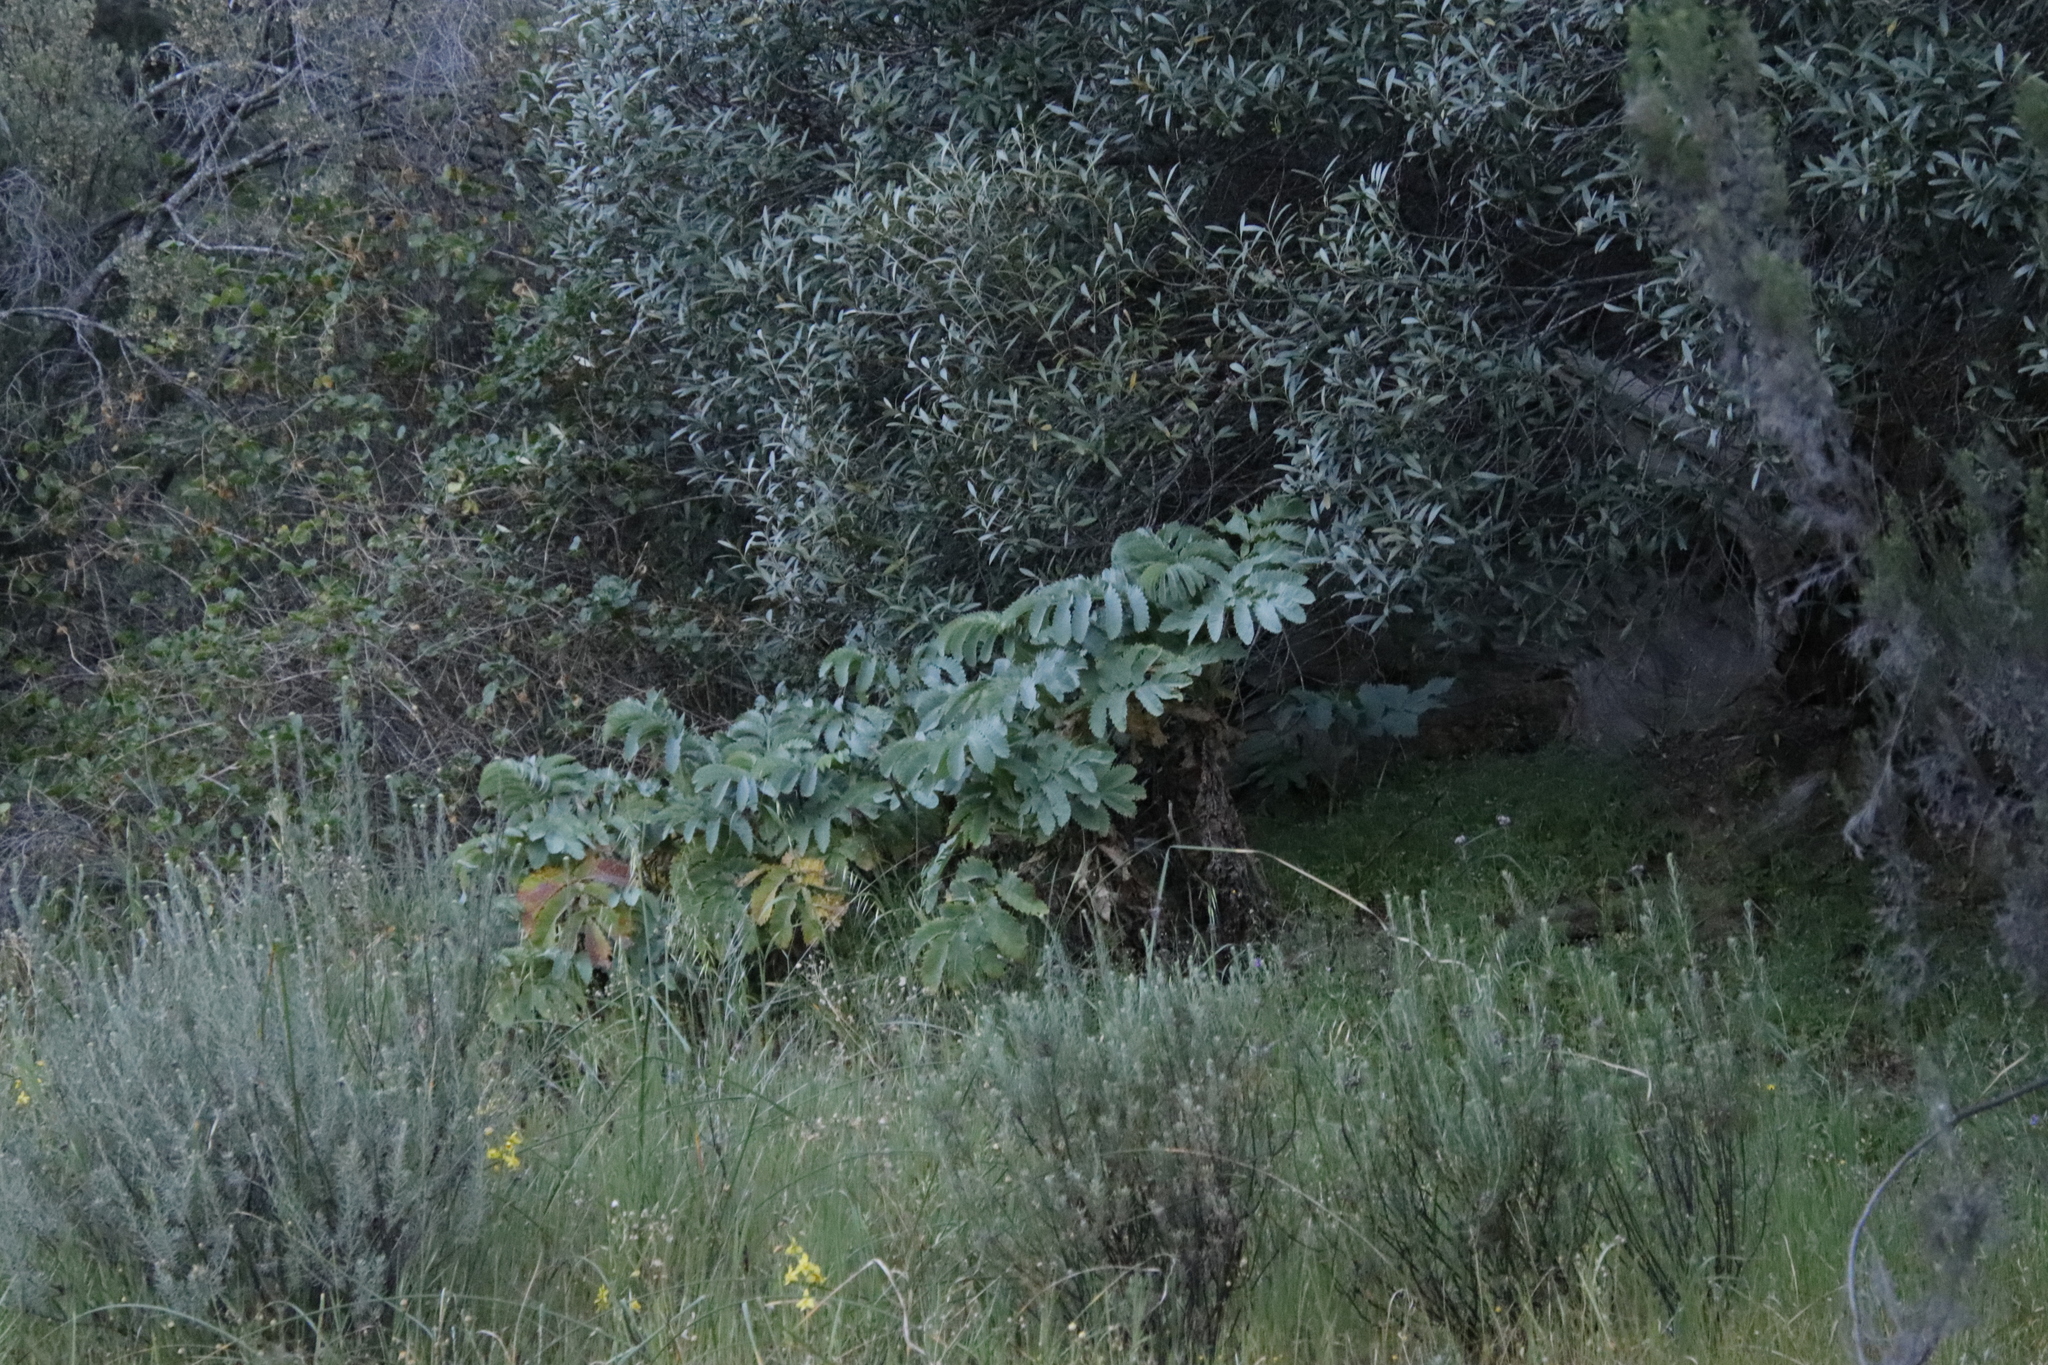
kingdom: Plantae
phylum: Tracheophyta
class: Magnoliopsida
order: Geraniales
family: Melianthaceae
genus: Melianthus
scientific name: Melianthus major
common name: Honey-flower
